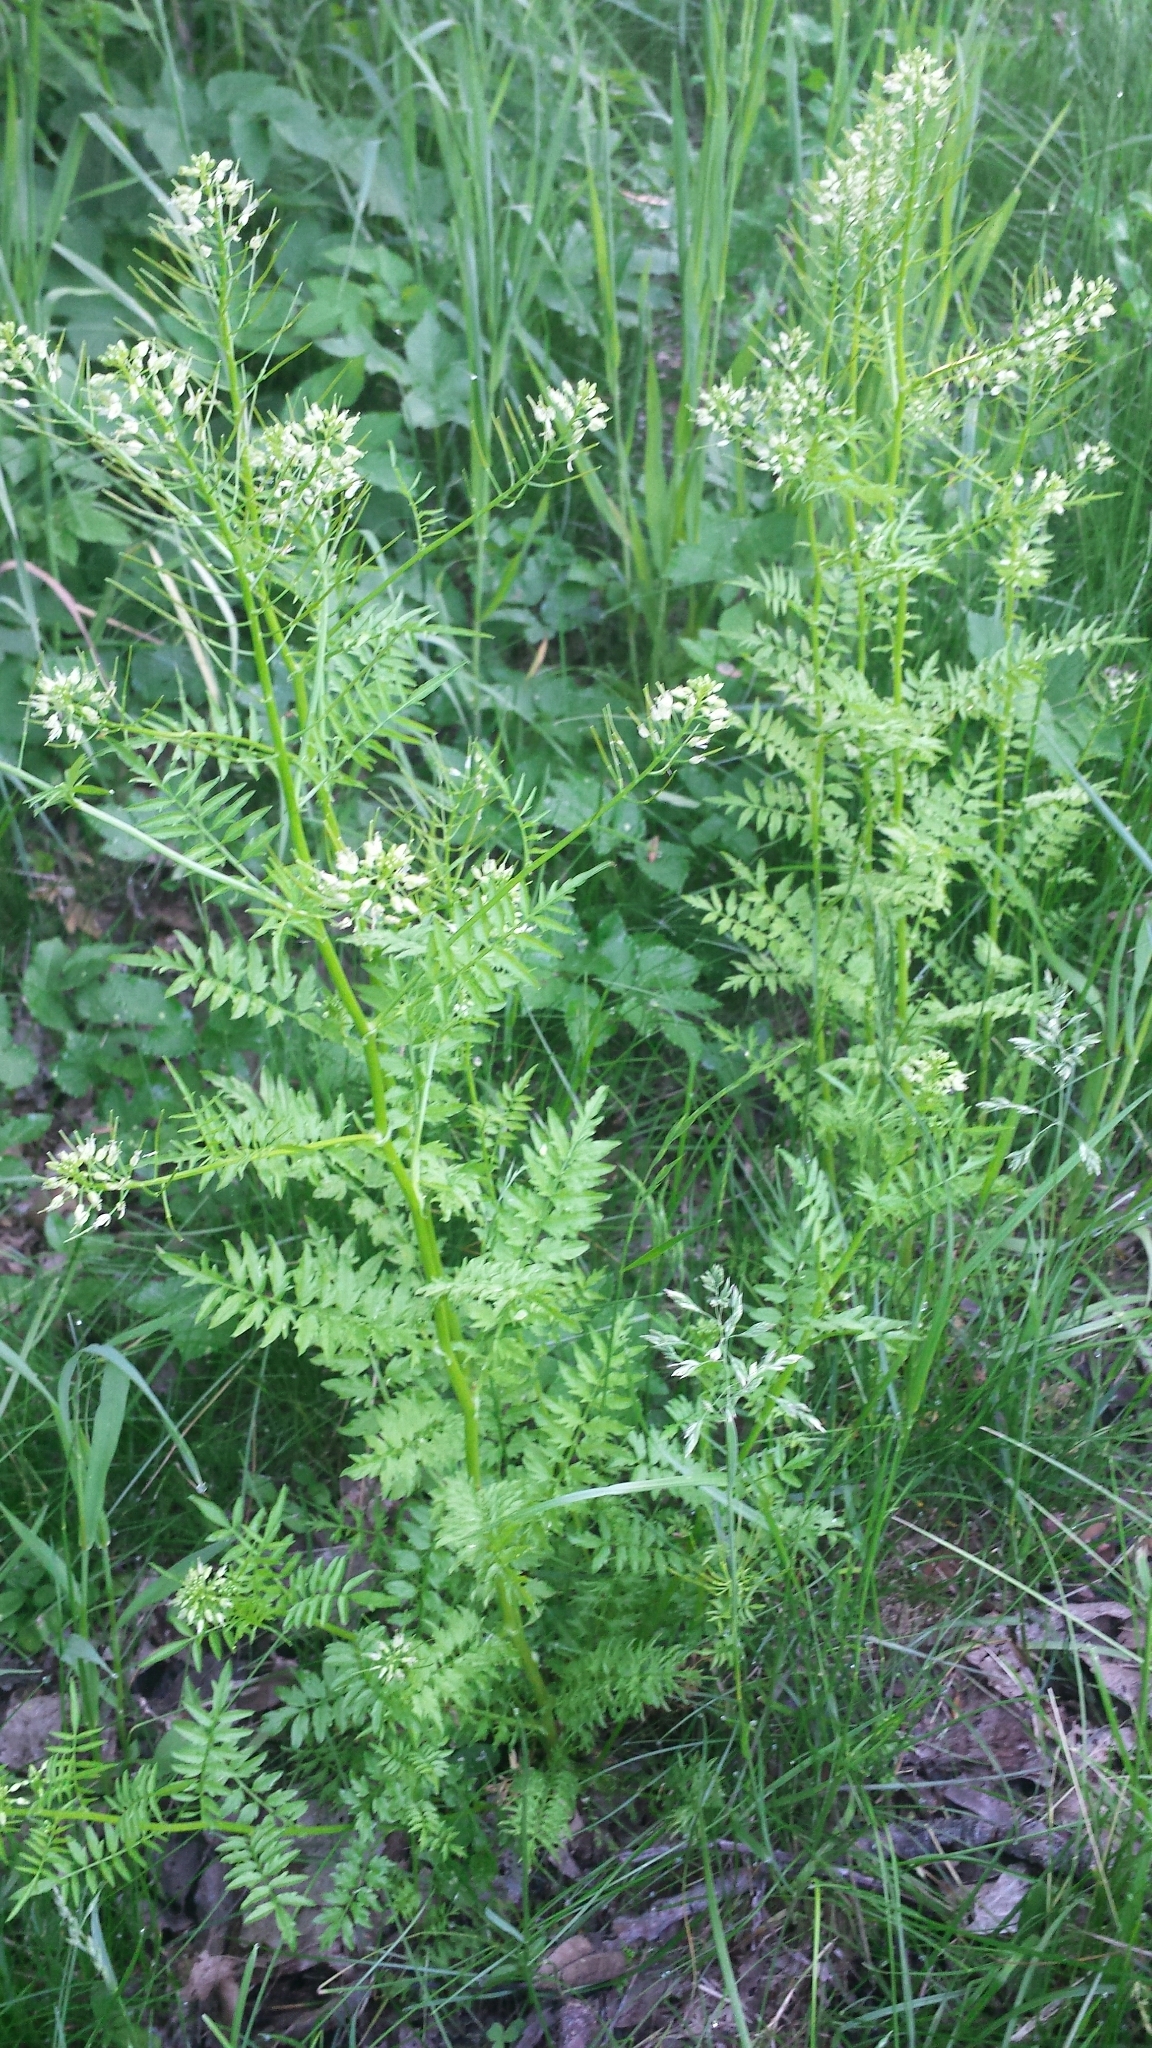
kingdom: Plantae
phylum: Tracheophyta
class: Magnoliopsida
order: Brassicales
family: Brassicaceae
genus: Cardamine
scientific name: Cardamine impatiens
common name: Narrow-leaved bitter-cress
